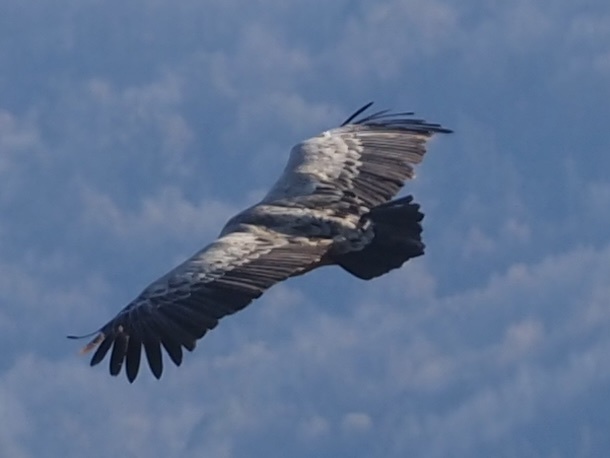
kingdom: Animalia
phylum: Chordata
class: Aves
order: Accipitriformes
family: Accipitridae
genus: Gyps
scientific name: Gyps fulvus
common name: Griffon vulture
